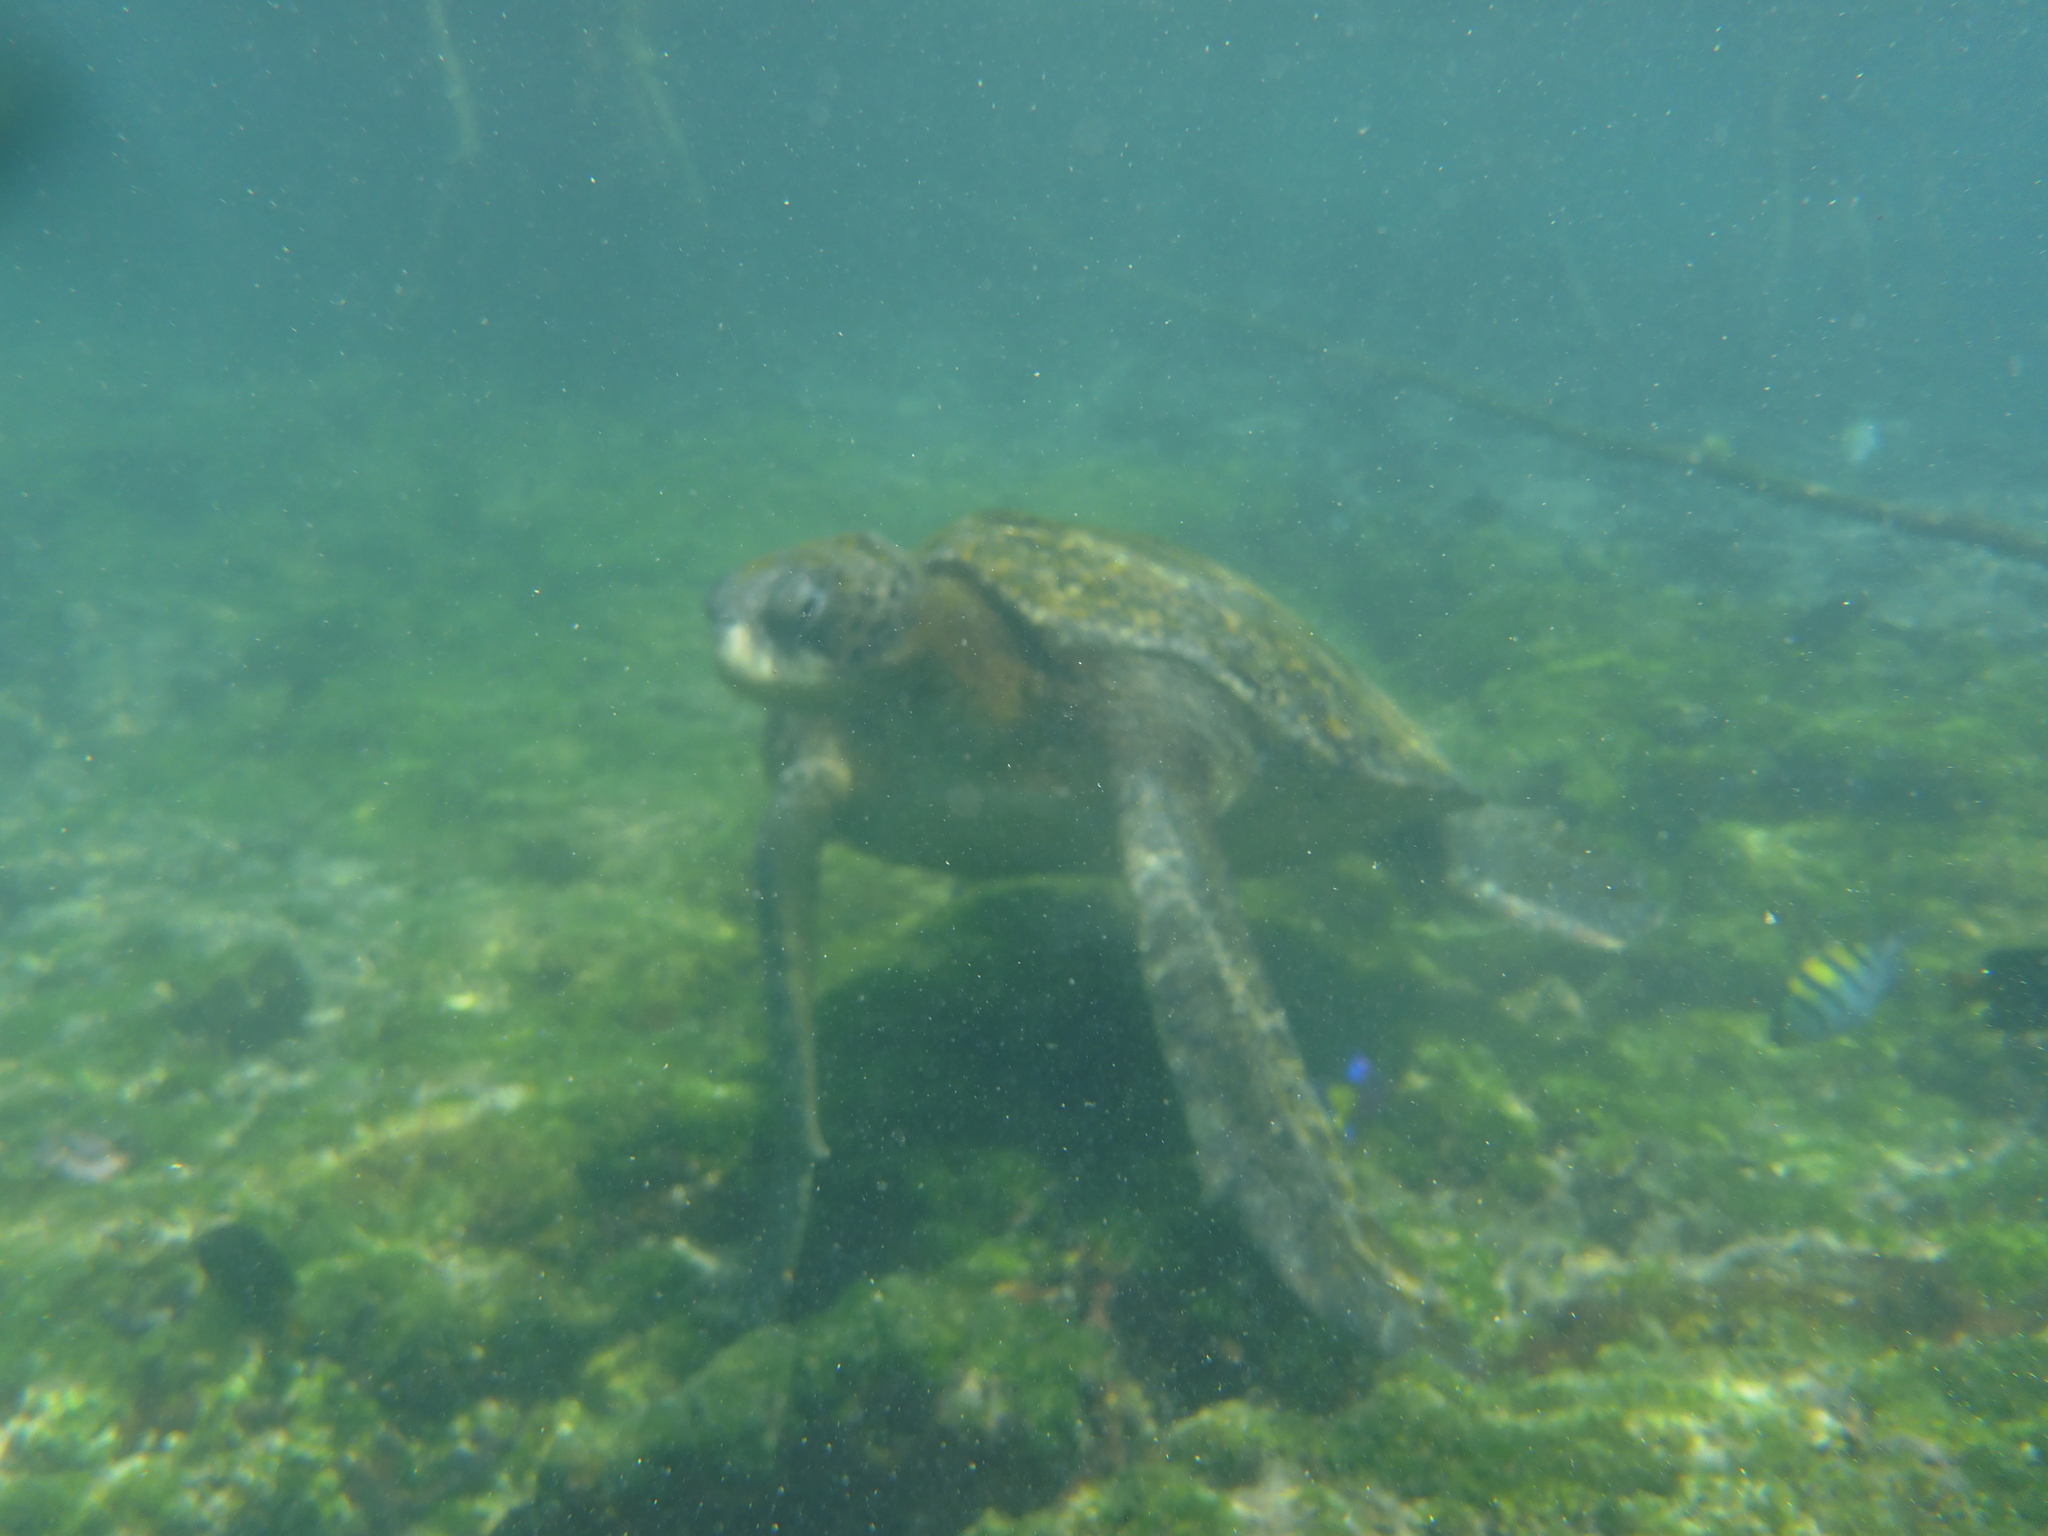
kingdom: Animalia
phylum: Chordata
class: Testudines
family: Cheloniidae
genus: Chelonia
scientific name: Chelonia mydas
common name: Green turtle
